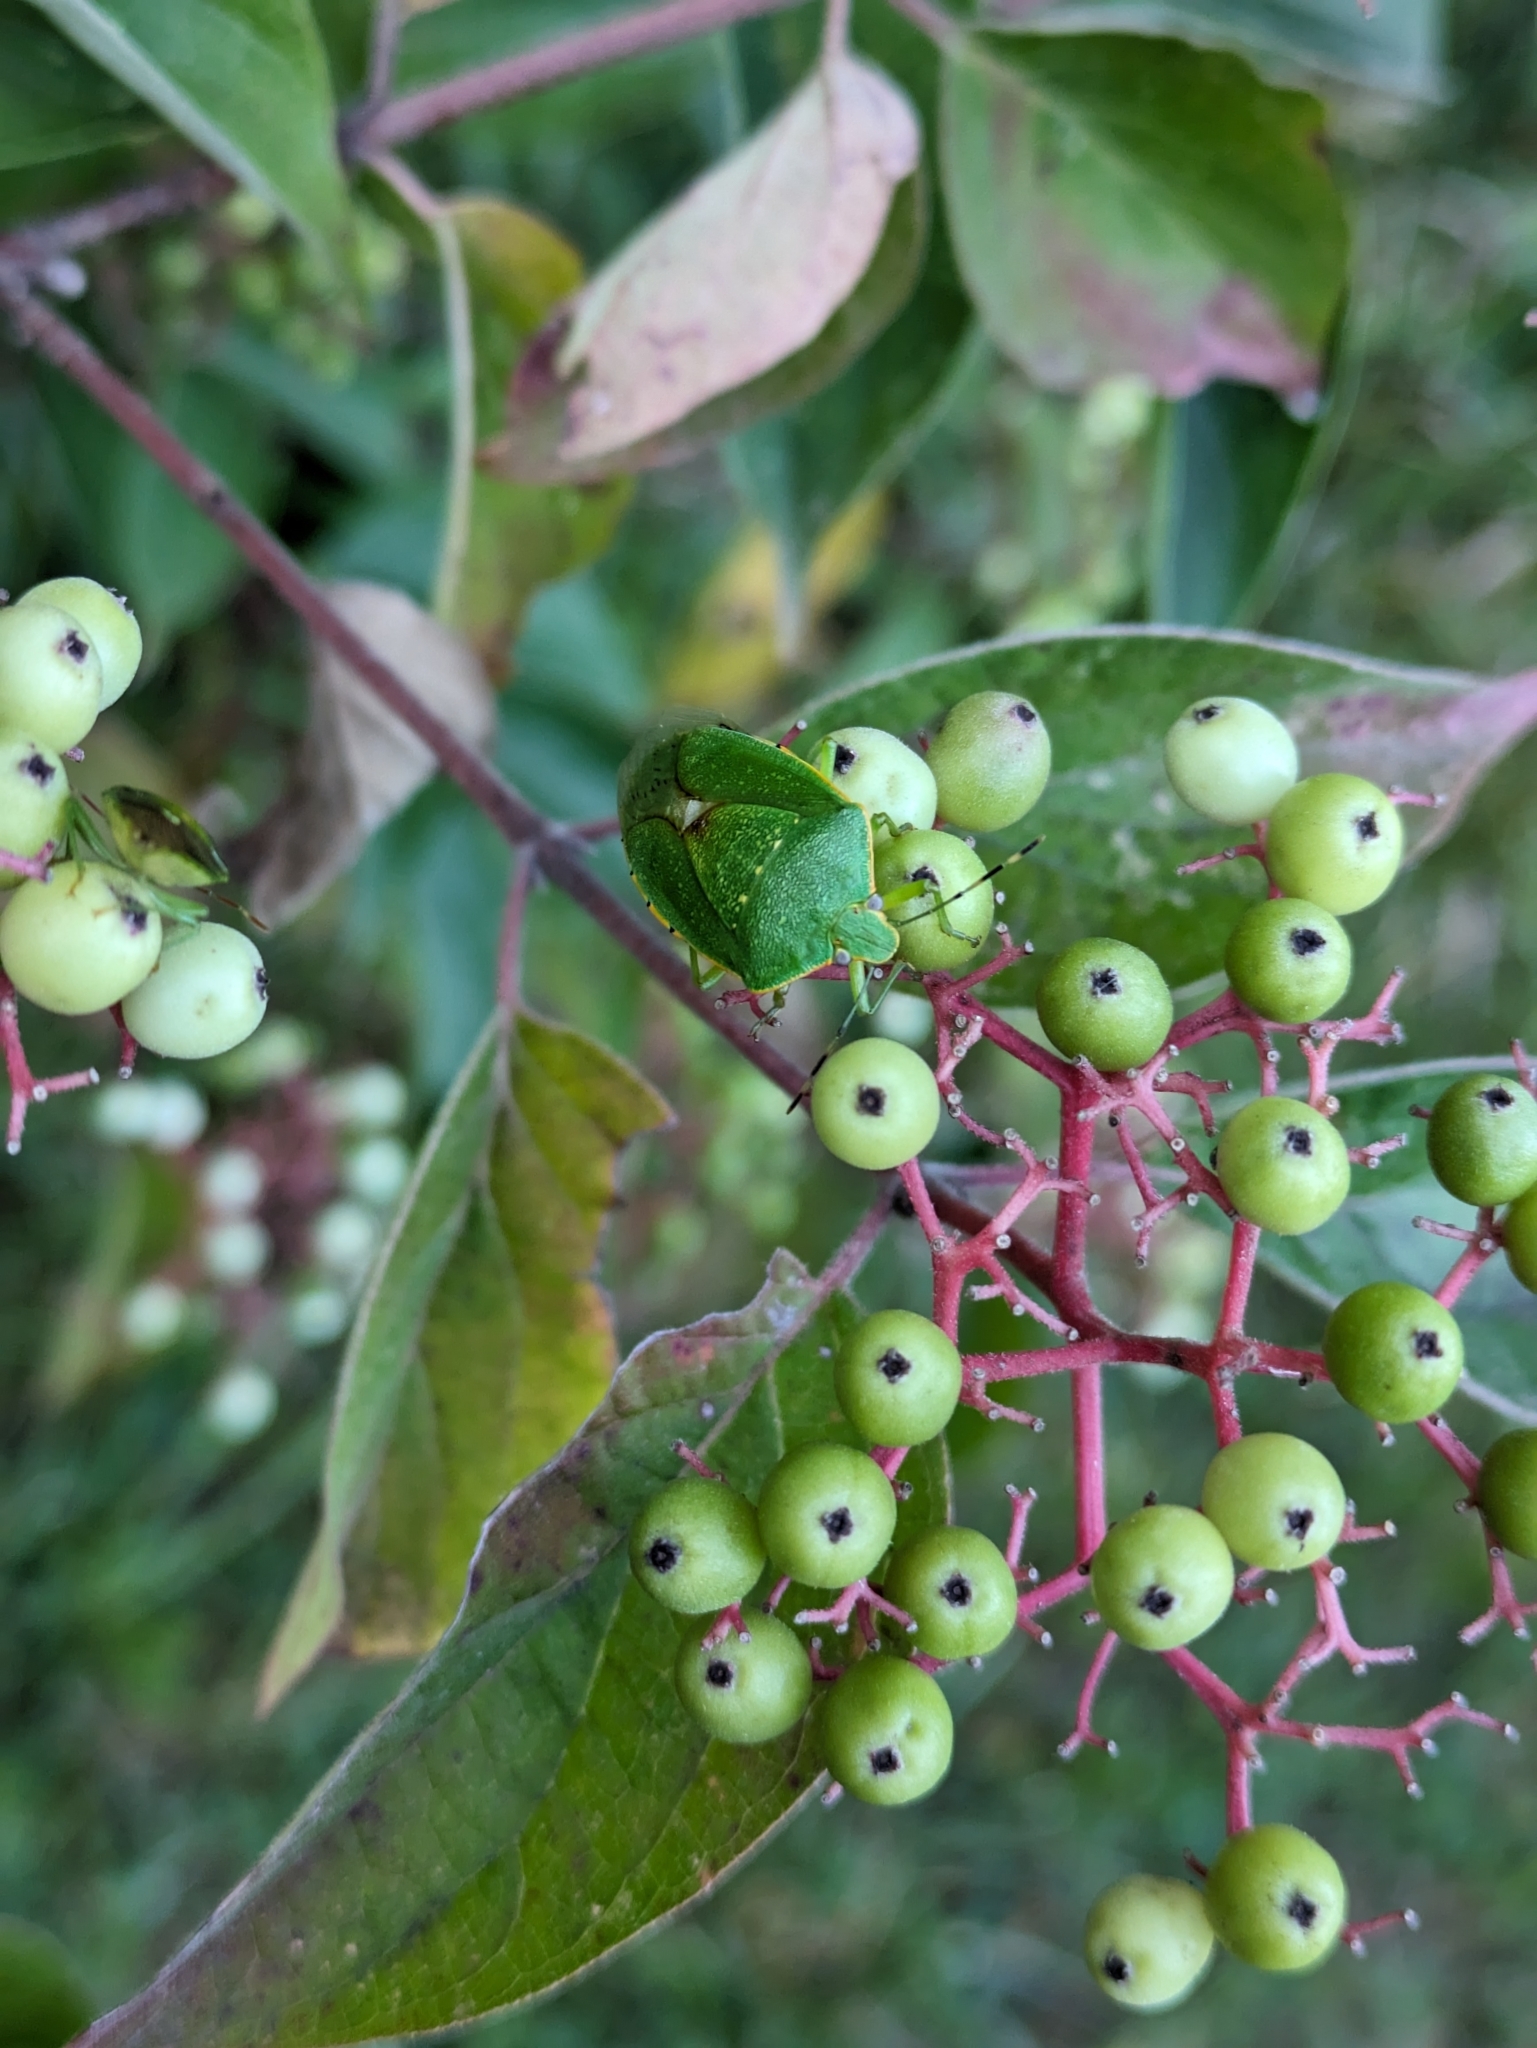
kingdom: Animalia
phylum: Arthropoda
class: Insecta
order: Hemiptera
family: Pentatomidae
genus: Chinavia
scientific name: Chinavia hilaris
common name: Green stink bug
